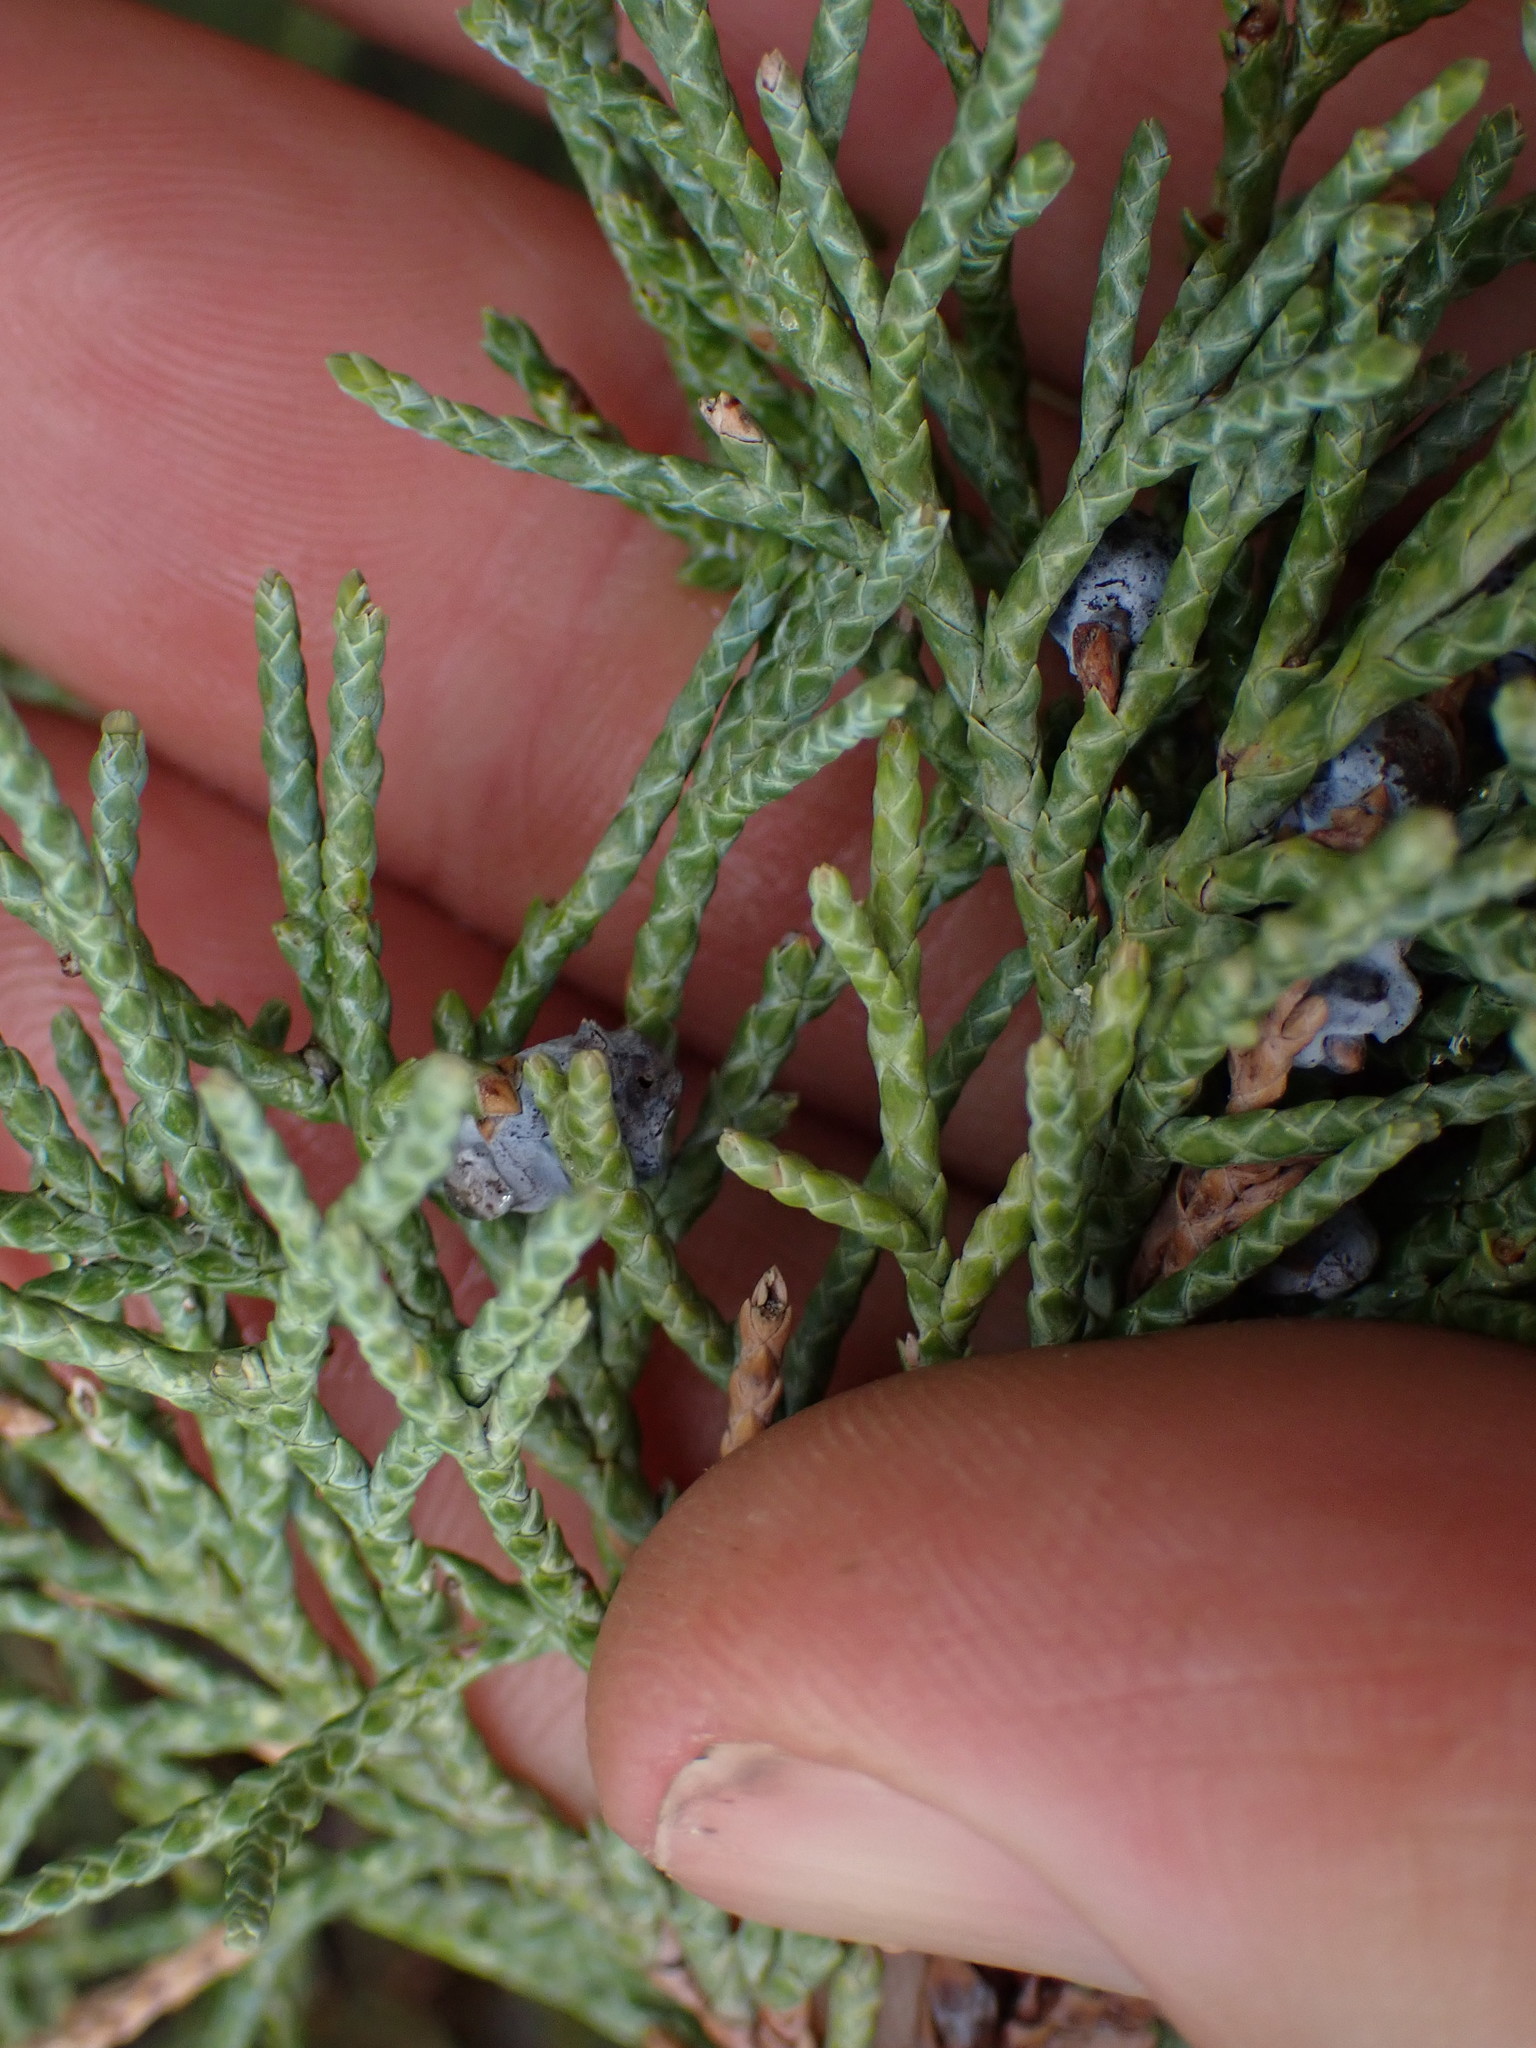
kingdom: Plantae
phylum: Tracheophyta
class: Pinopsida
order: Pinales
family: Cupressaceae
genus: Juniperus
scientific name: Juniperus scopulorum
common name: Rocky mountain juniper
